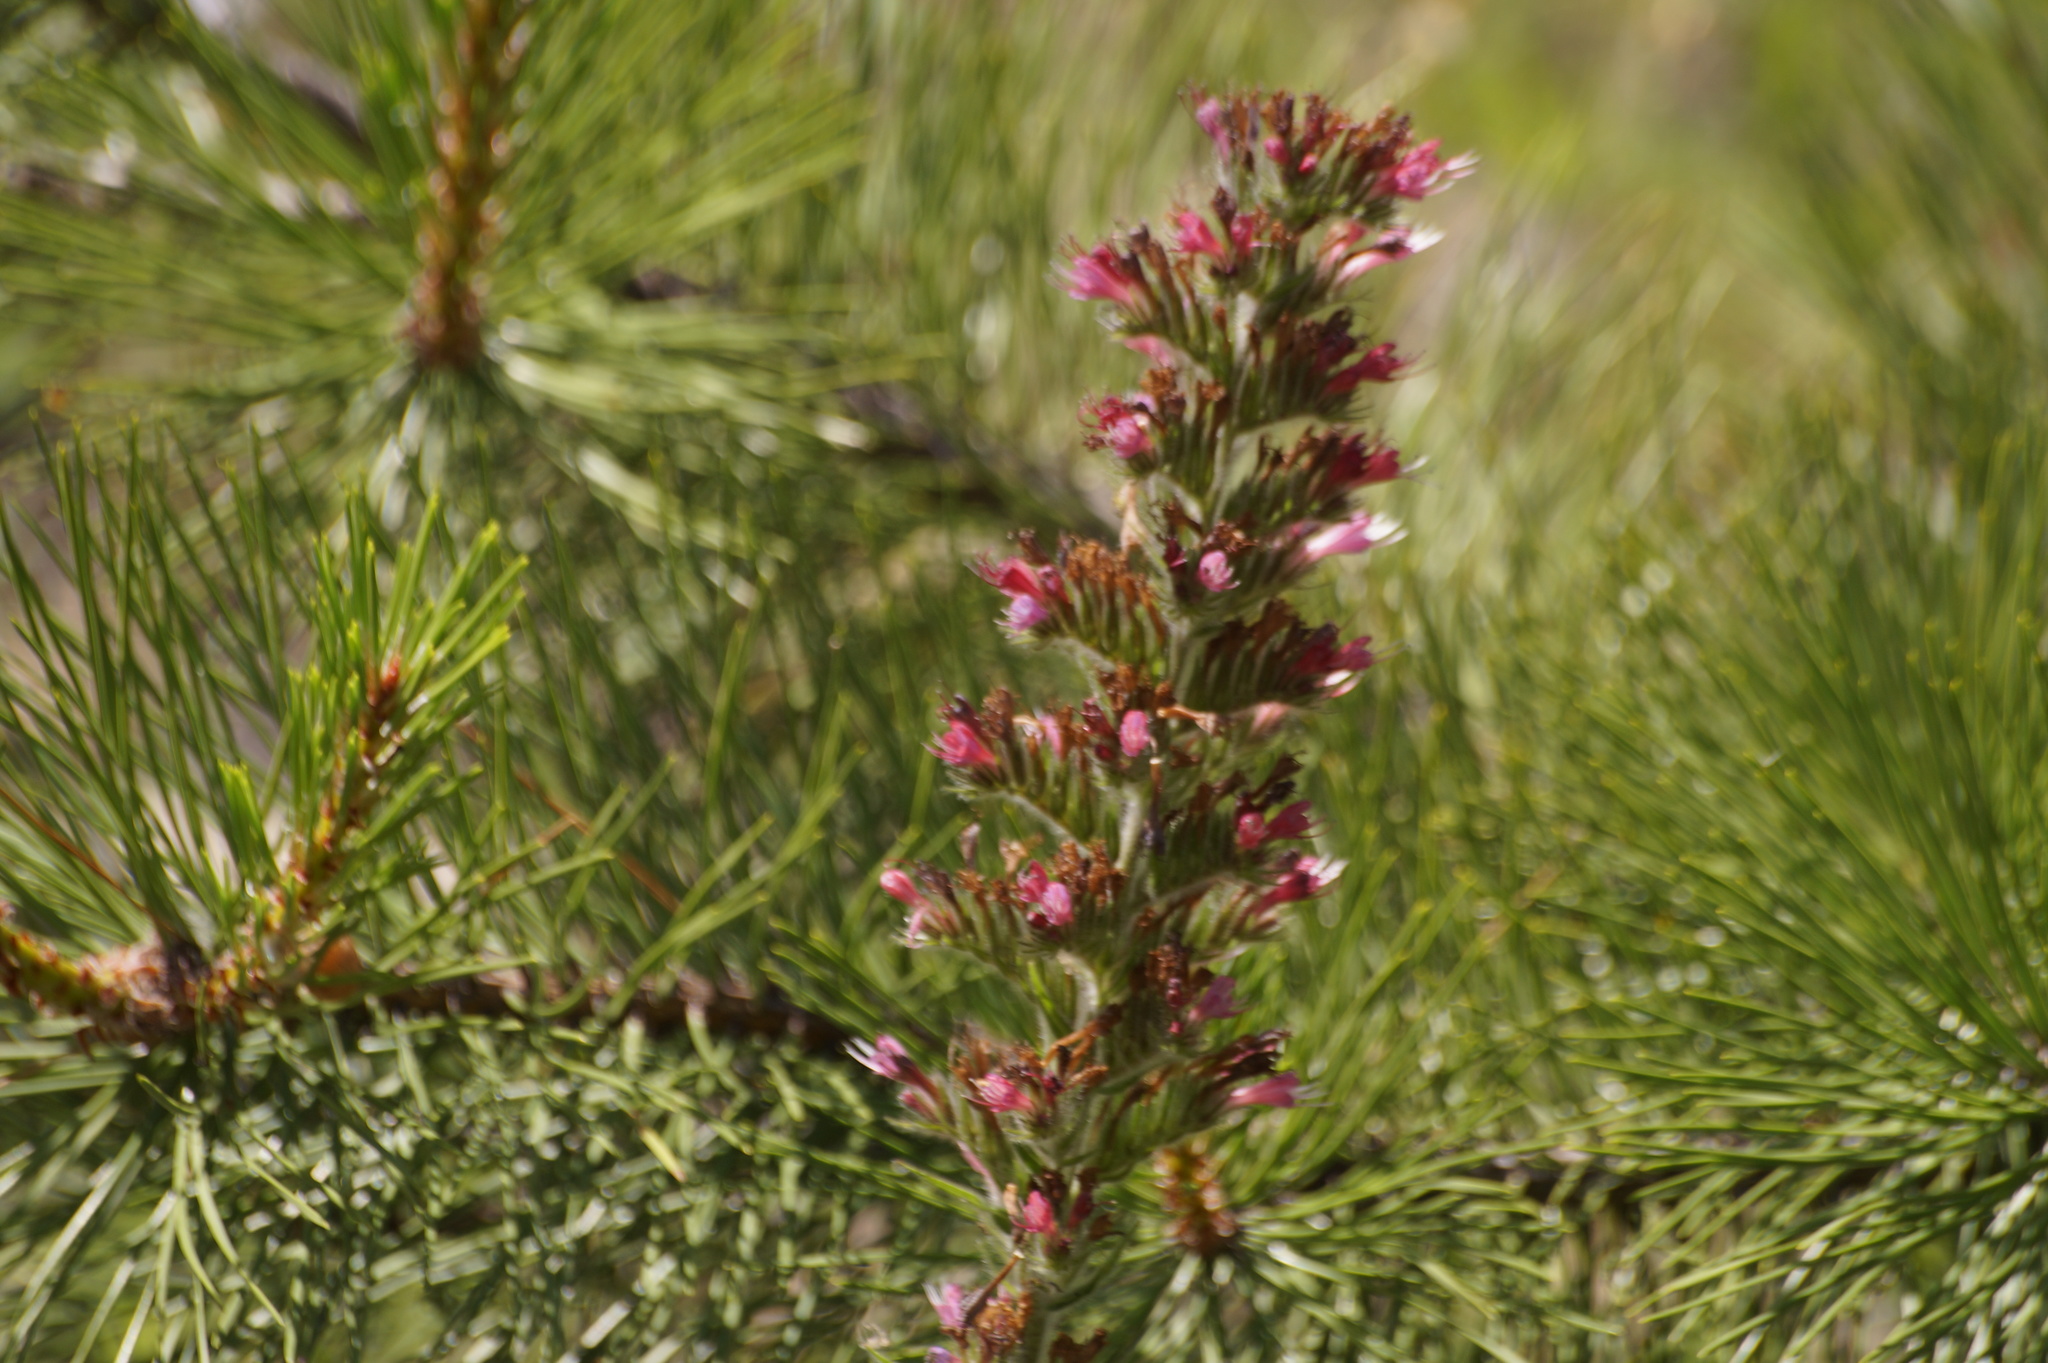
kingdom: Plantae
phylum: Tracheophyta
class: Magnoliopsida
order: Boraginales
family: Boraginaceae
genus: Pontechium
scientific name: Pontechium maculatum
